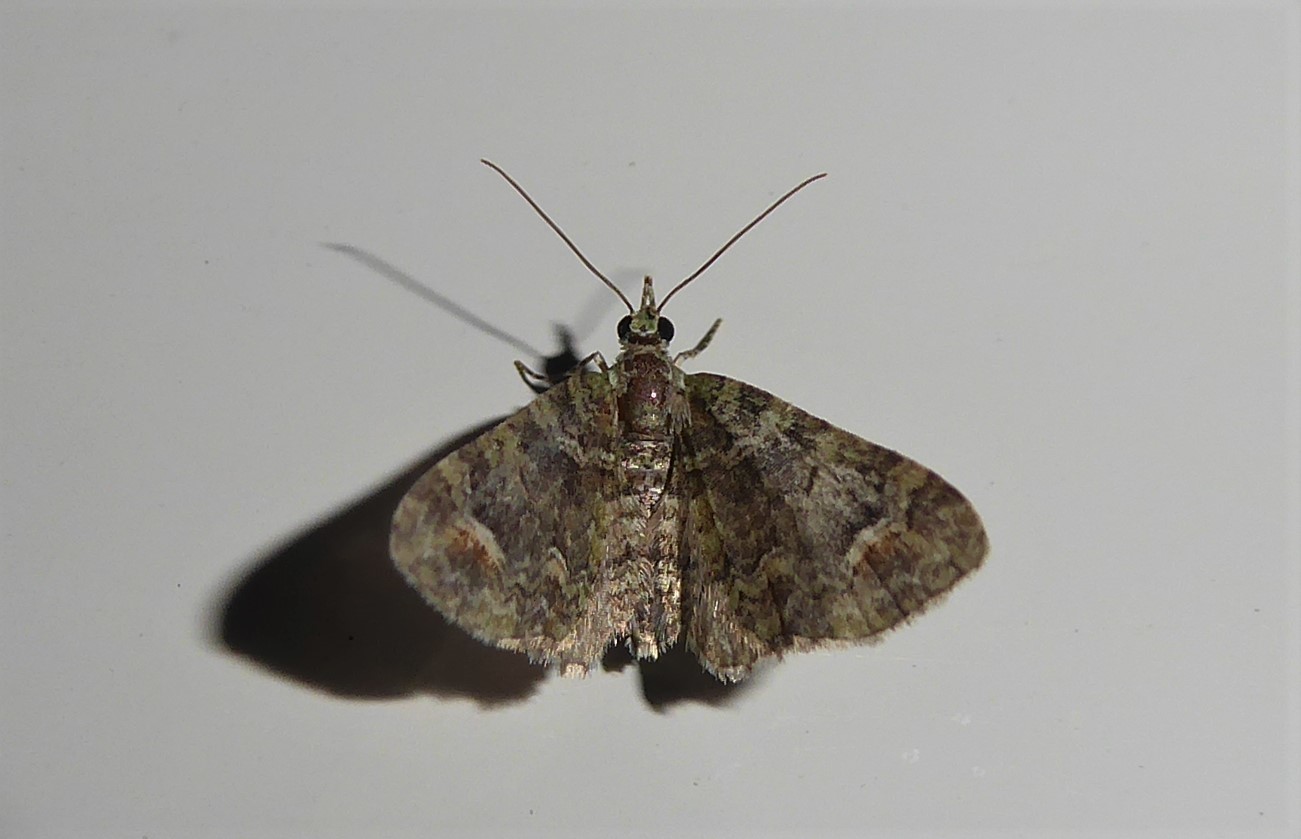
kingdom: Animalia
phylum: Arthropoda
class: Insecta
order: Lepidoptera
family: Geometridae
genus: Idaea
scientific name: Idaea mutanda
